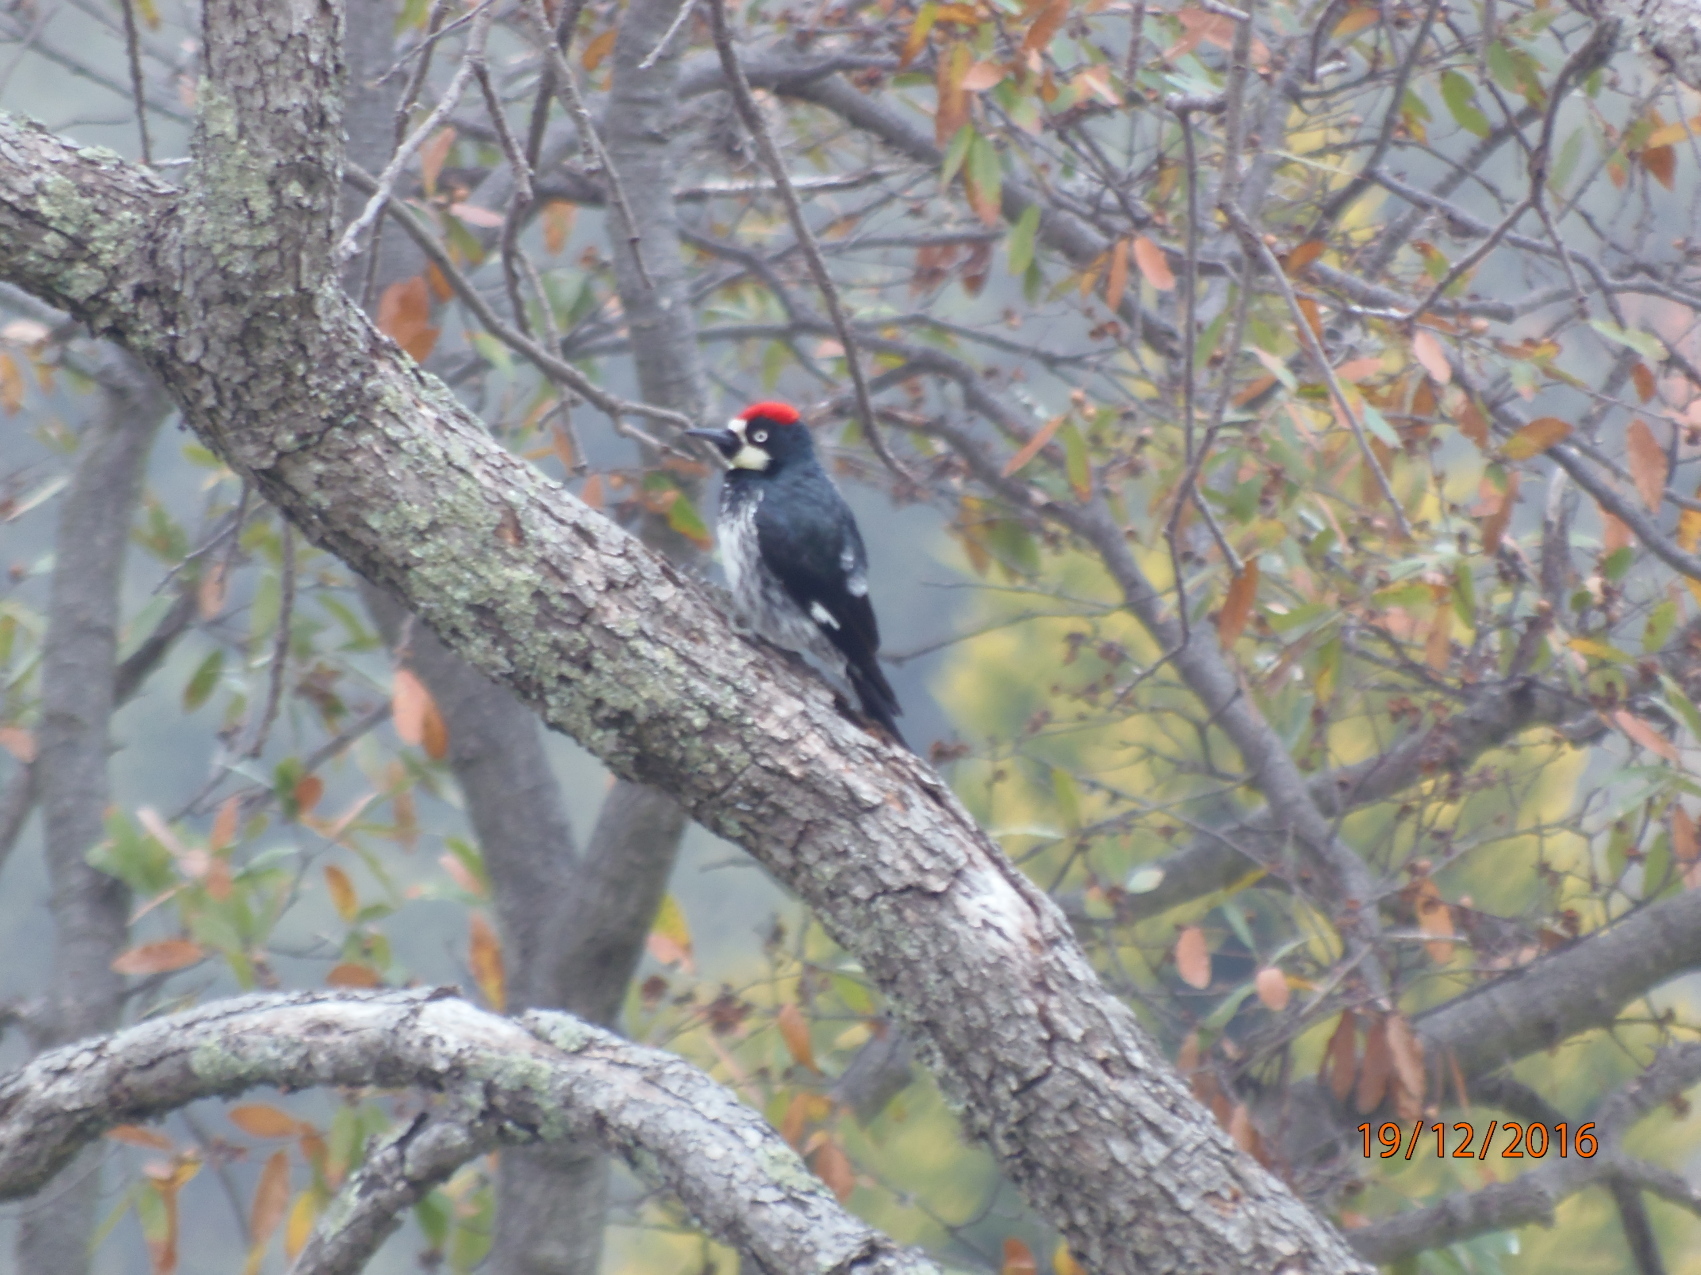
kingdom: Animalia
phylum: Chordata
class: Aves
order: Piciformes
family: Picidae
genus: Melanerpes
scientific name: Melanerpes formicivorus
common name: Acorn woodpecker
